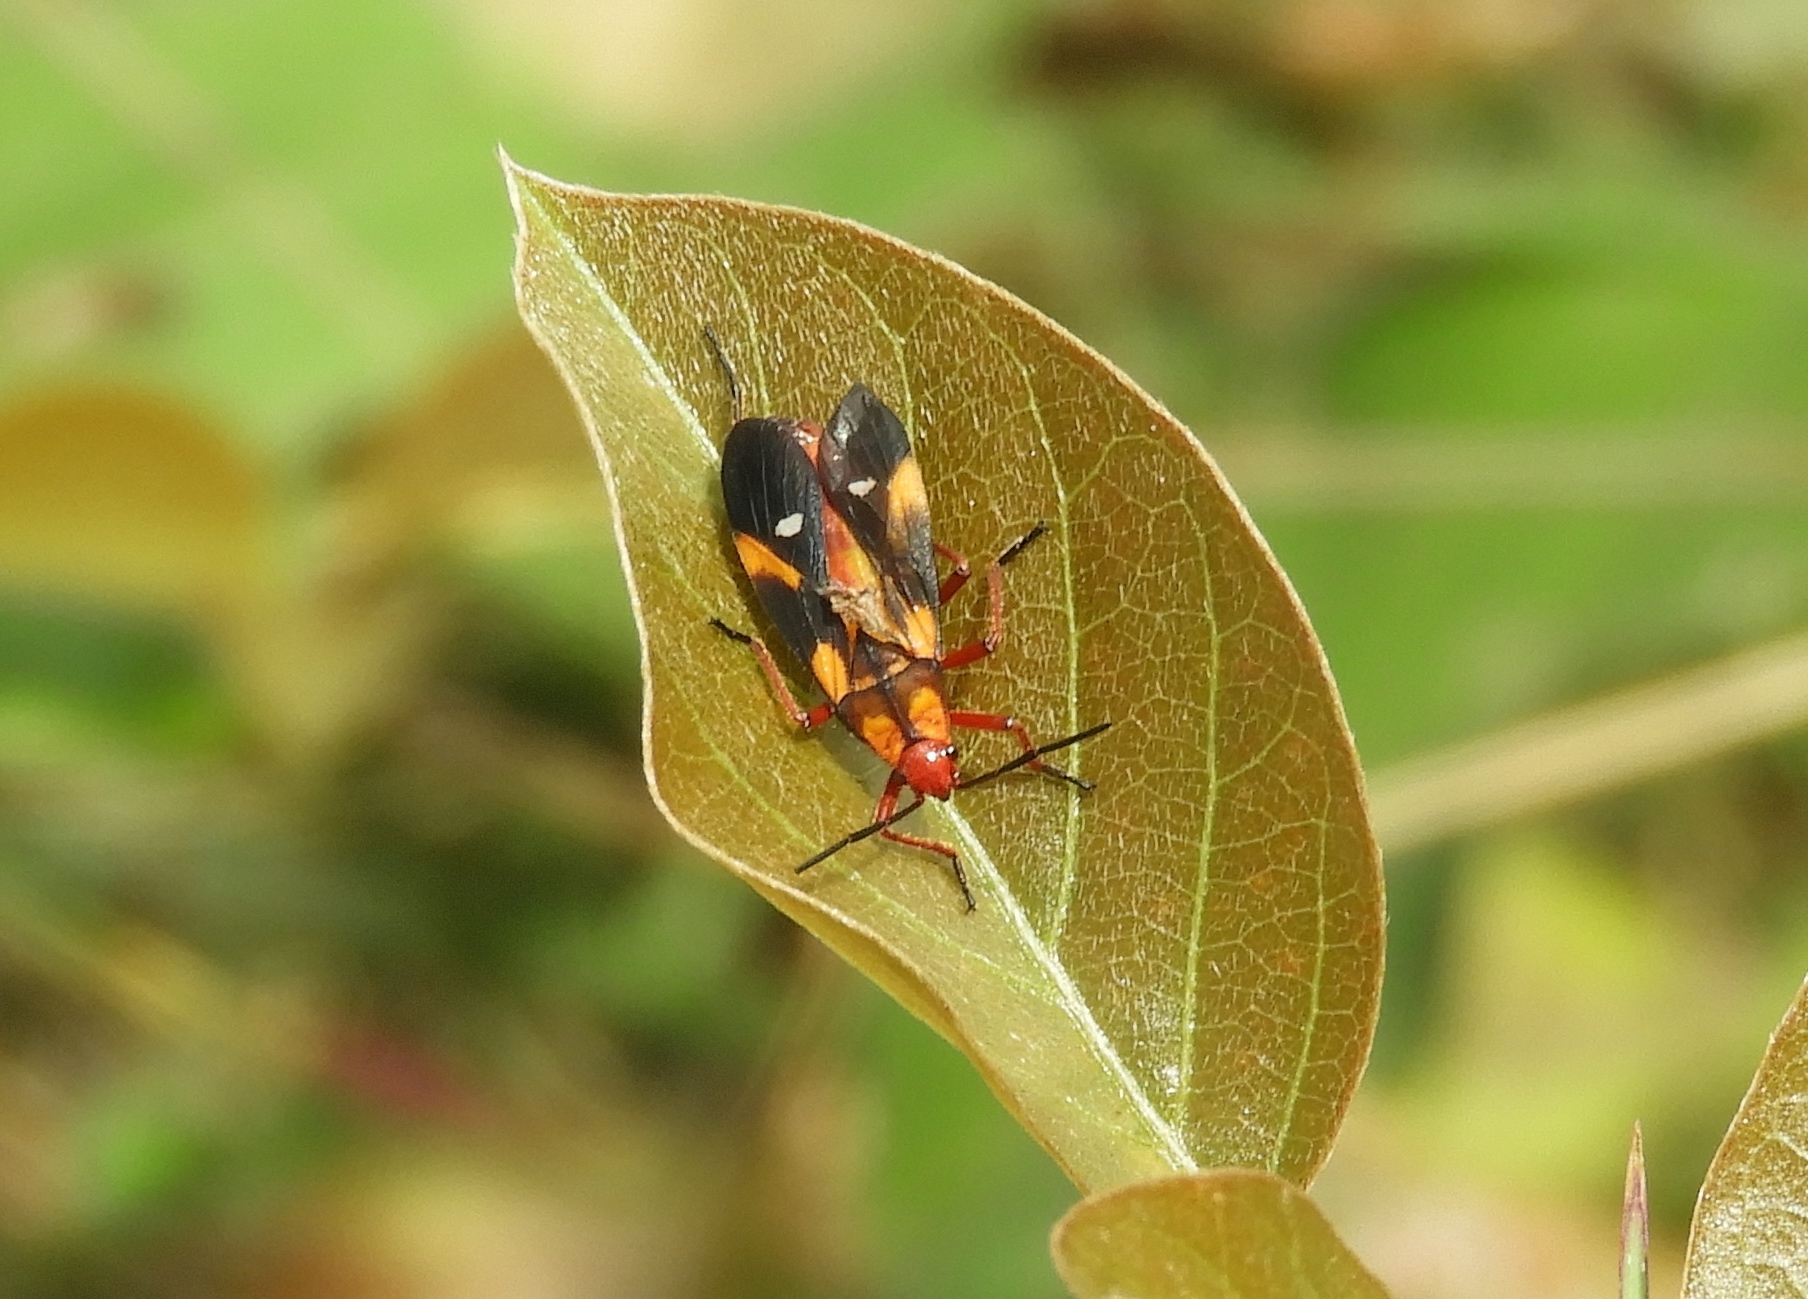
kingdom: Animalia
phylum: Arthropoda
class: Insecta
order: Hemiptera
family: Lygaeidae
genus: Oncopeltus
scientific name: Oncopeltus guttaloides
